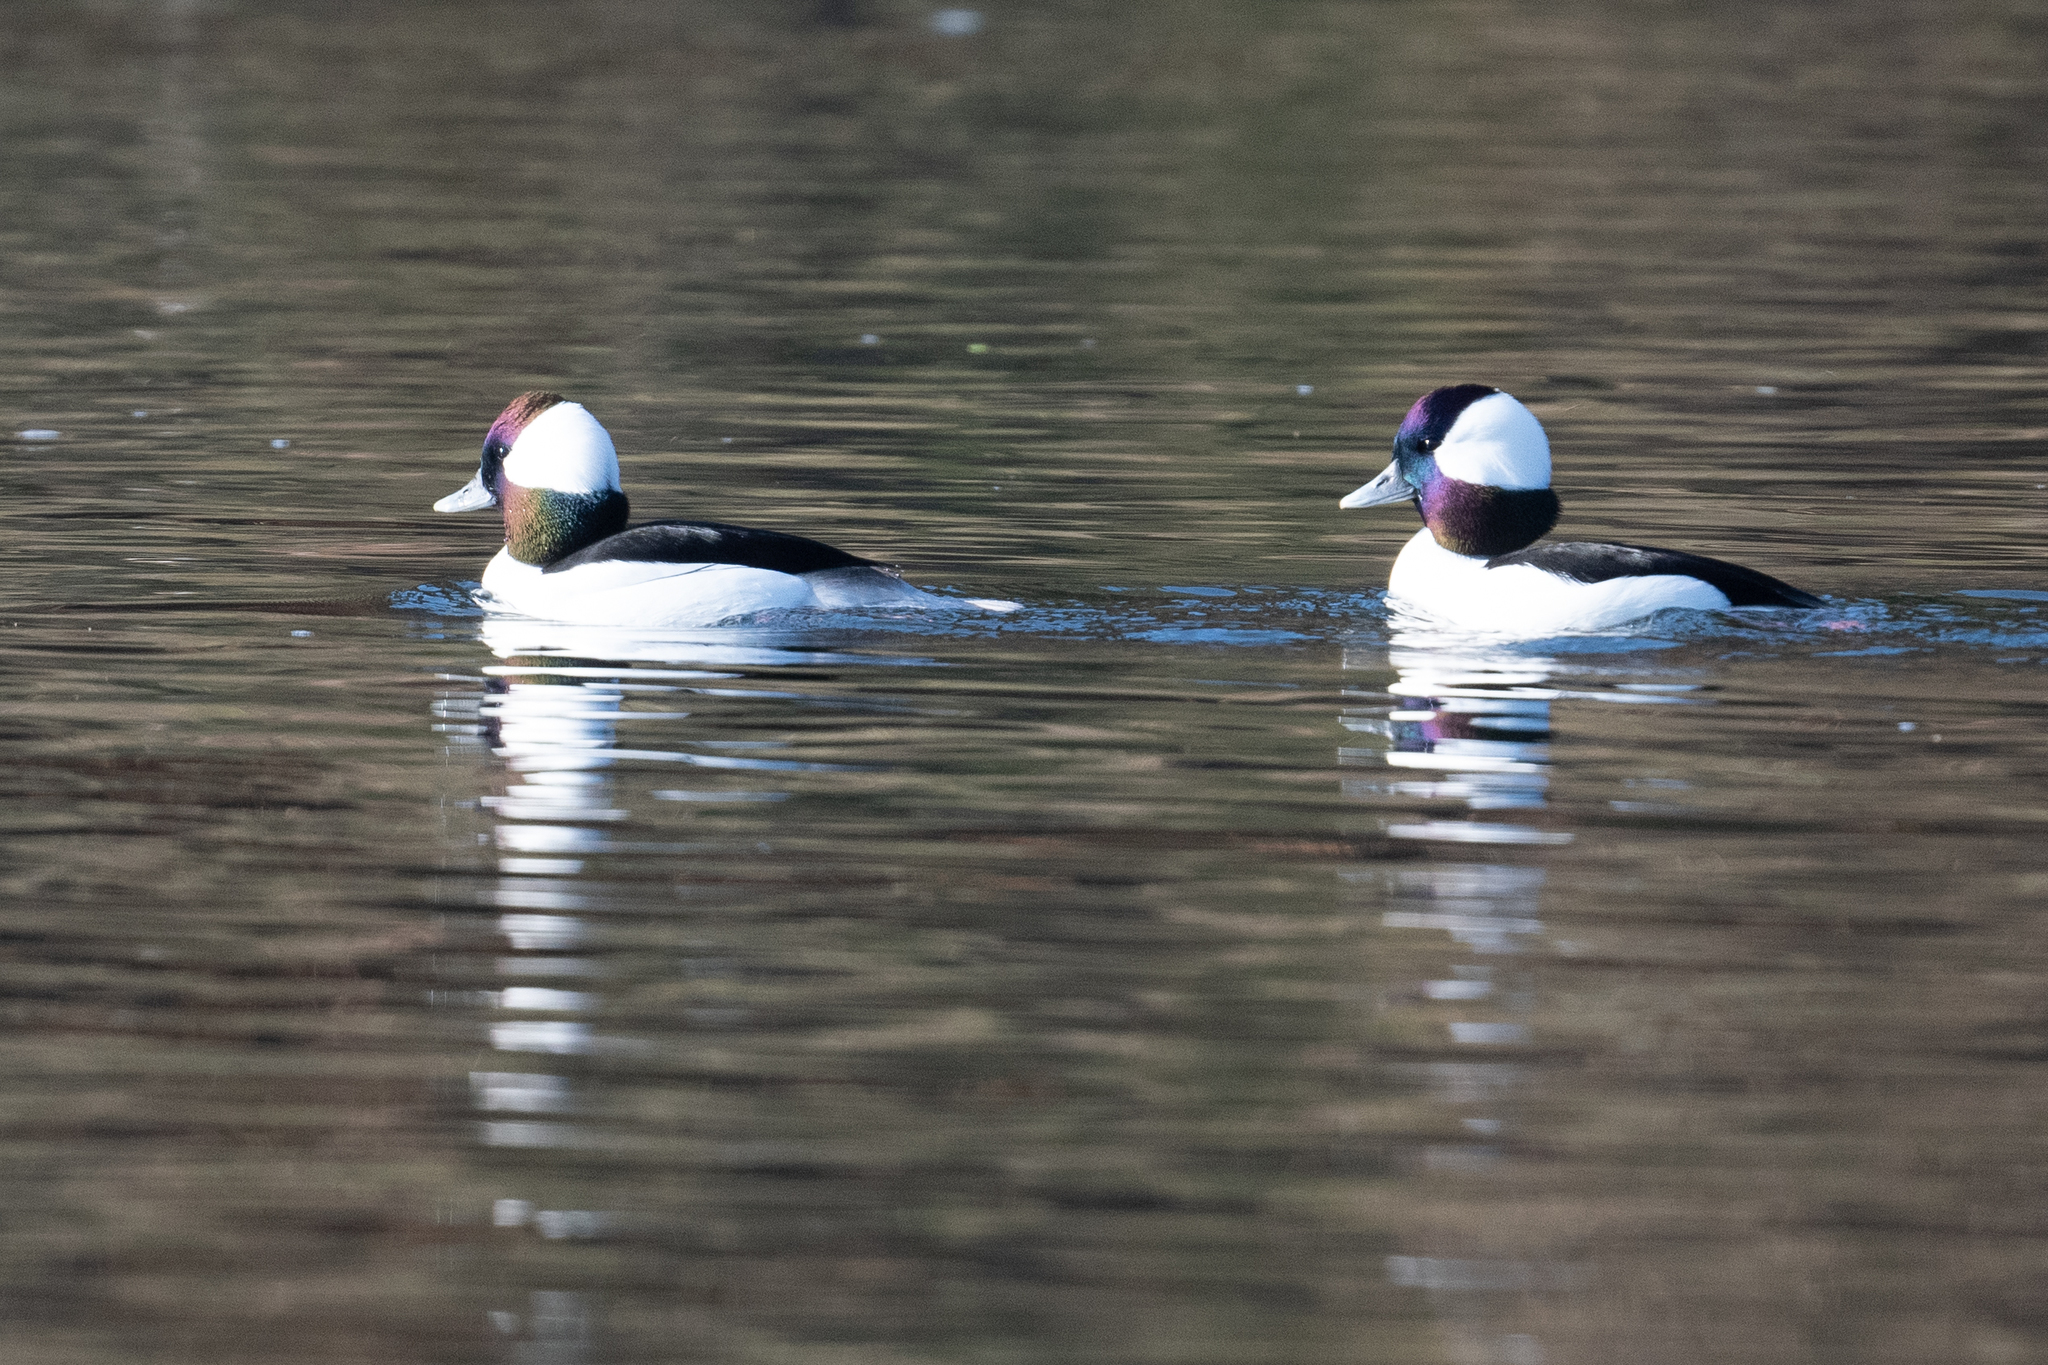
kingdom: Animalia
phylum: Chordata
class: Aves
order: Anseriformes
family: Anatidae
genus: Bucephala
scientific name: Bucephala albeola
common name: Bufflehead
